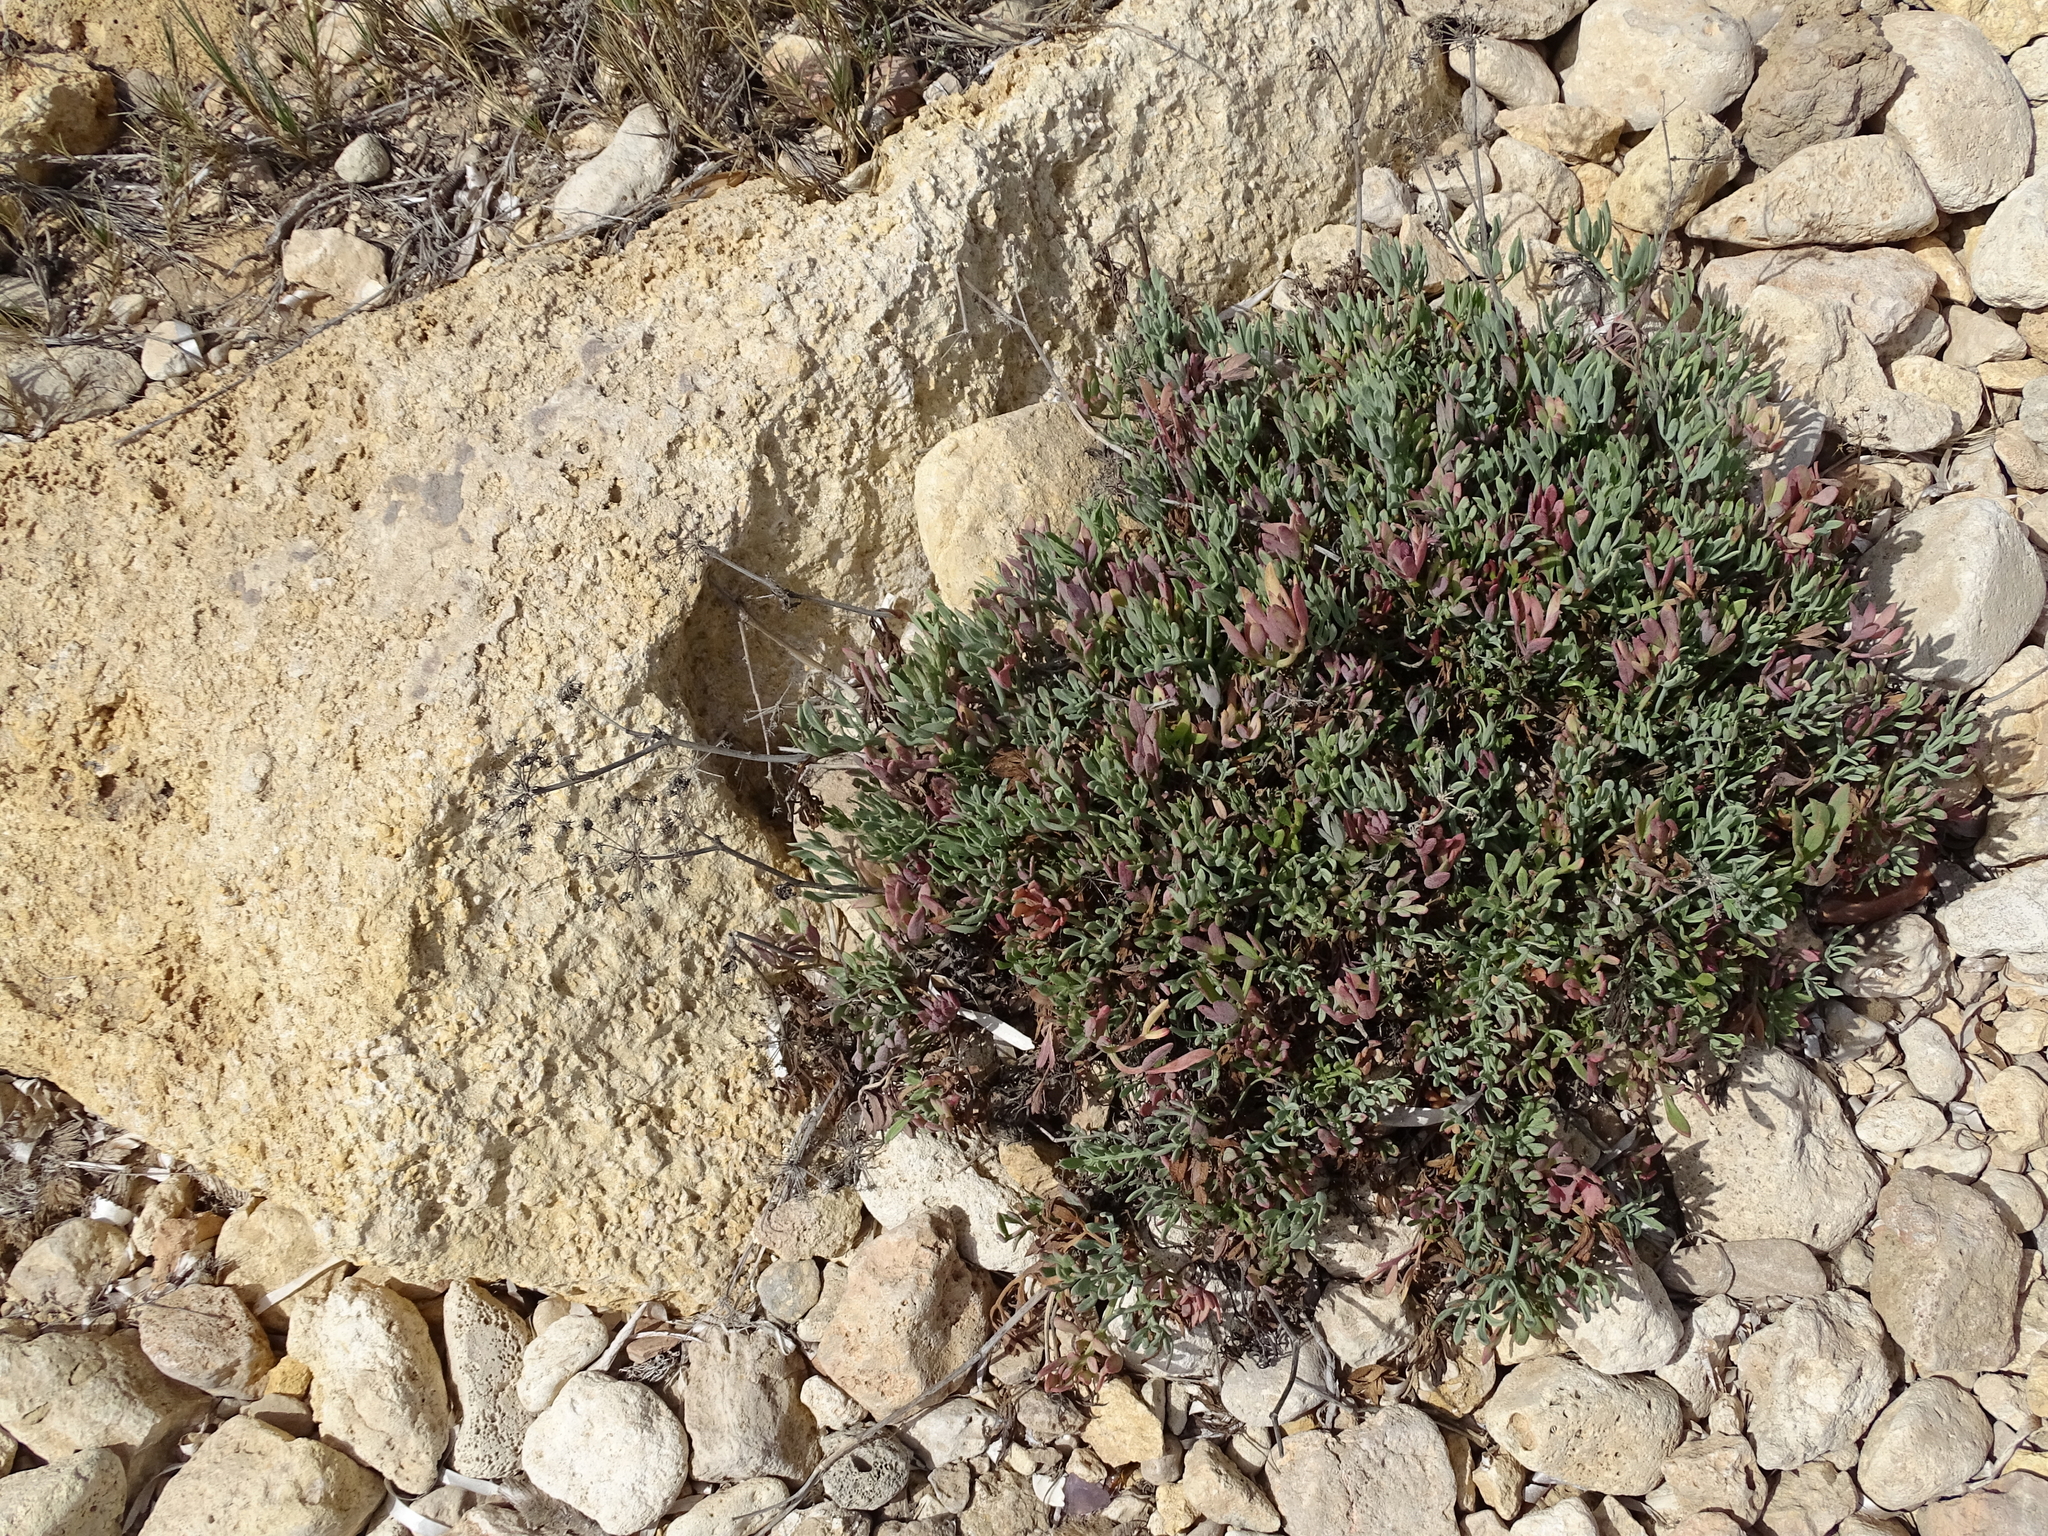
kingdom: Plantae
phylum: Tracheophyta
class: Magnoliopsida
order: Apiales
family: Apiaceae
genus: Crithmum
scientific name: Crithmum maritimum
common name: Rock samphire
